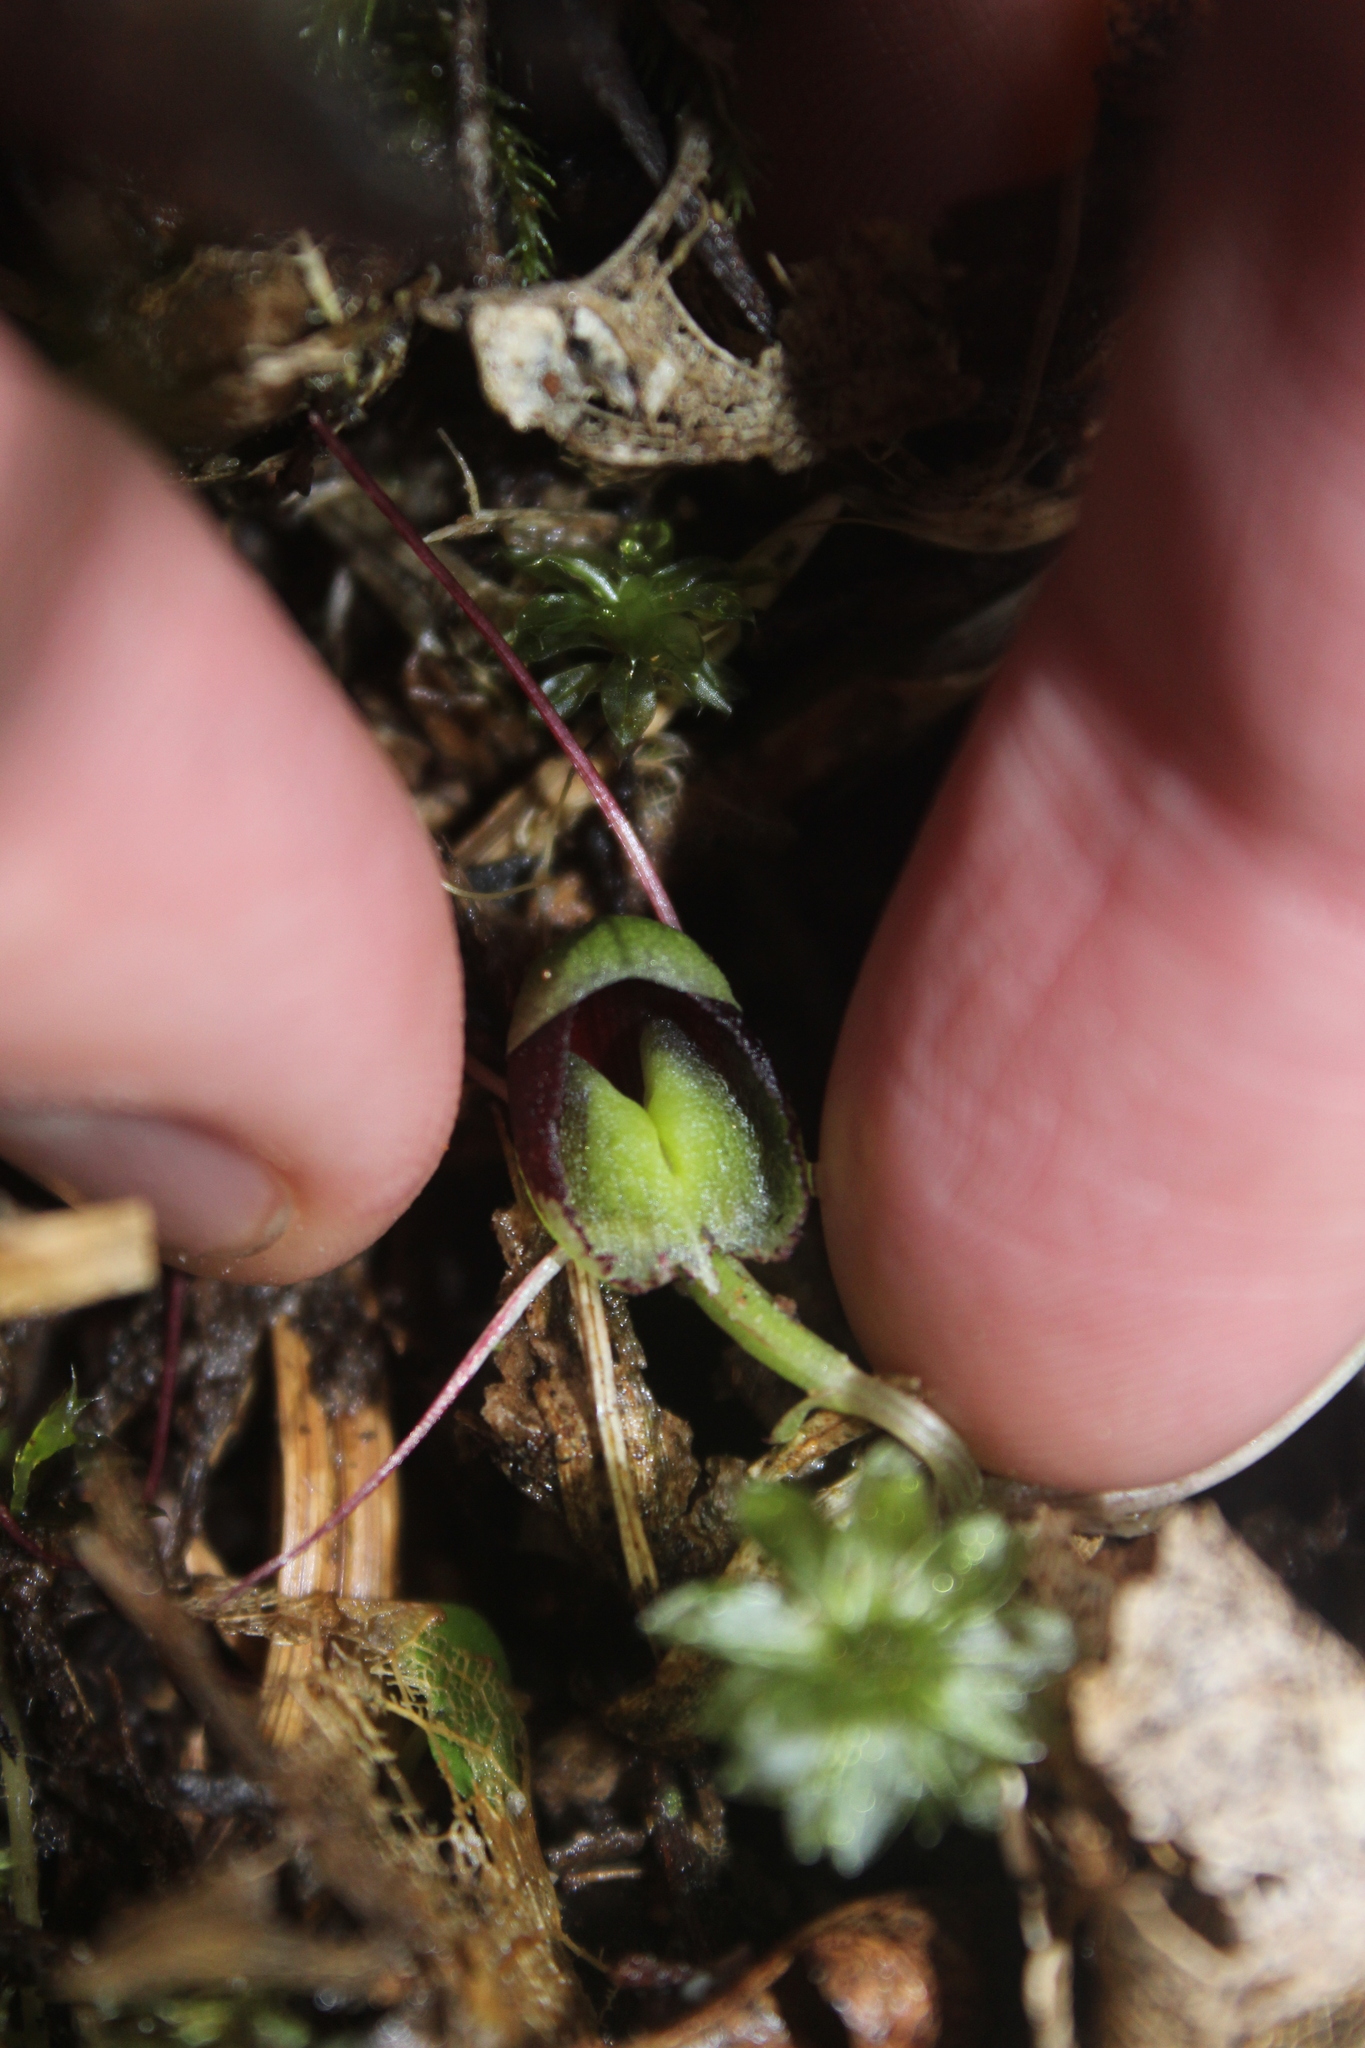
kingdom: Plantae
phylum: Tracheophyta
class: Liliopsida
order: Asparagales
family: Orchidaceae
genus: Corybas
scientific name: Corybas trilobus
